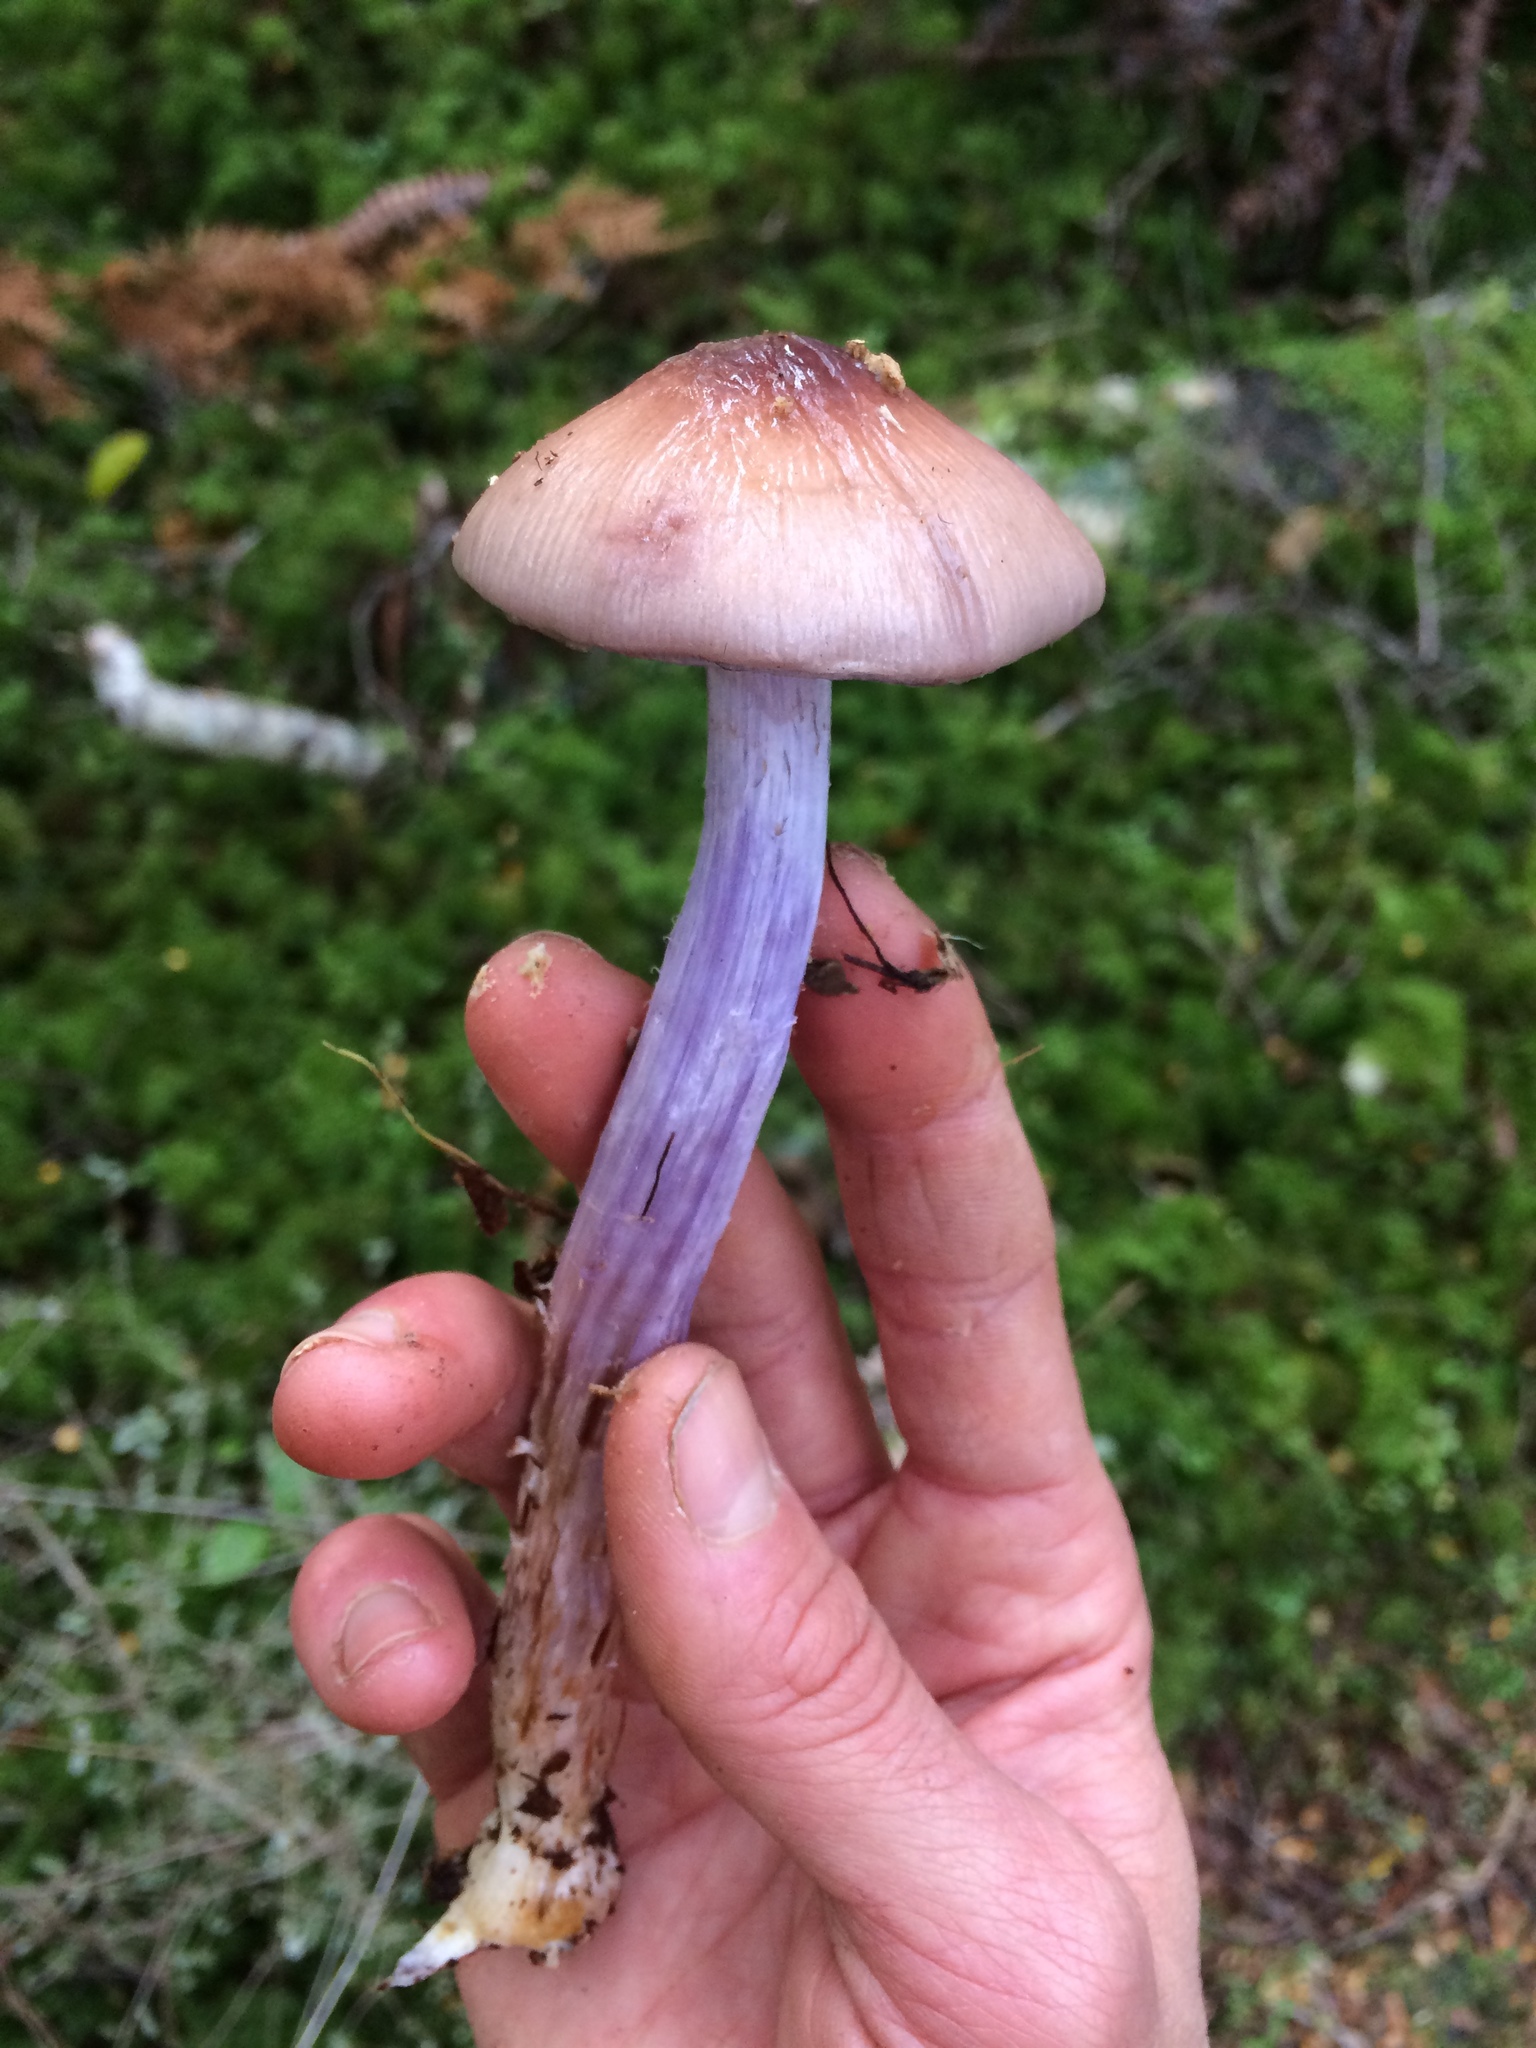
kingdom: Fungi
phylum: Basidiomycota
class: Agaricomycetes
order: Agaricales
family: Cortinariaceae
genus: Cortinarius
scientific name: Cortinarius bellus
